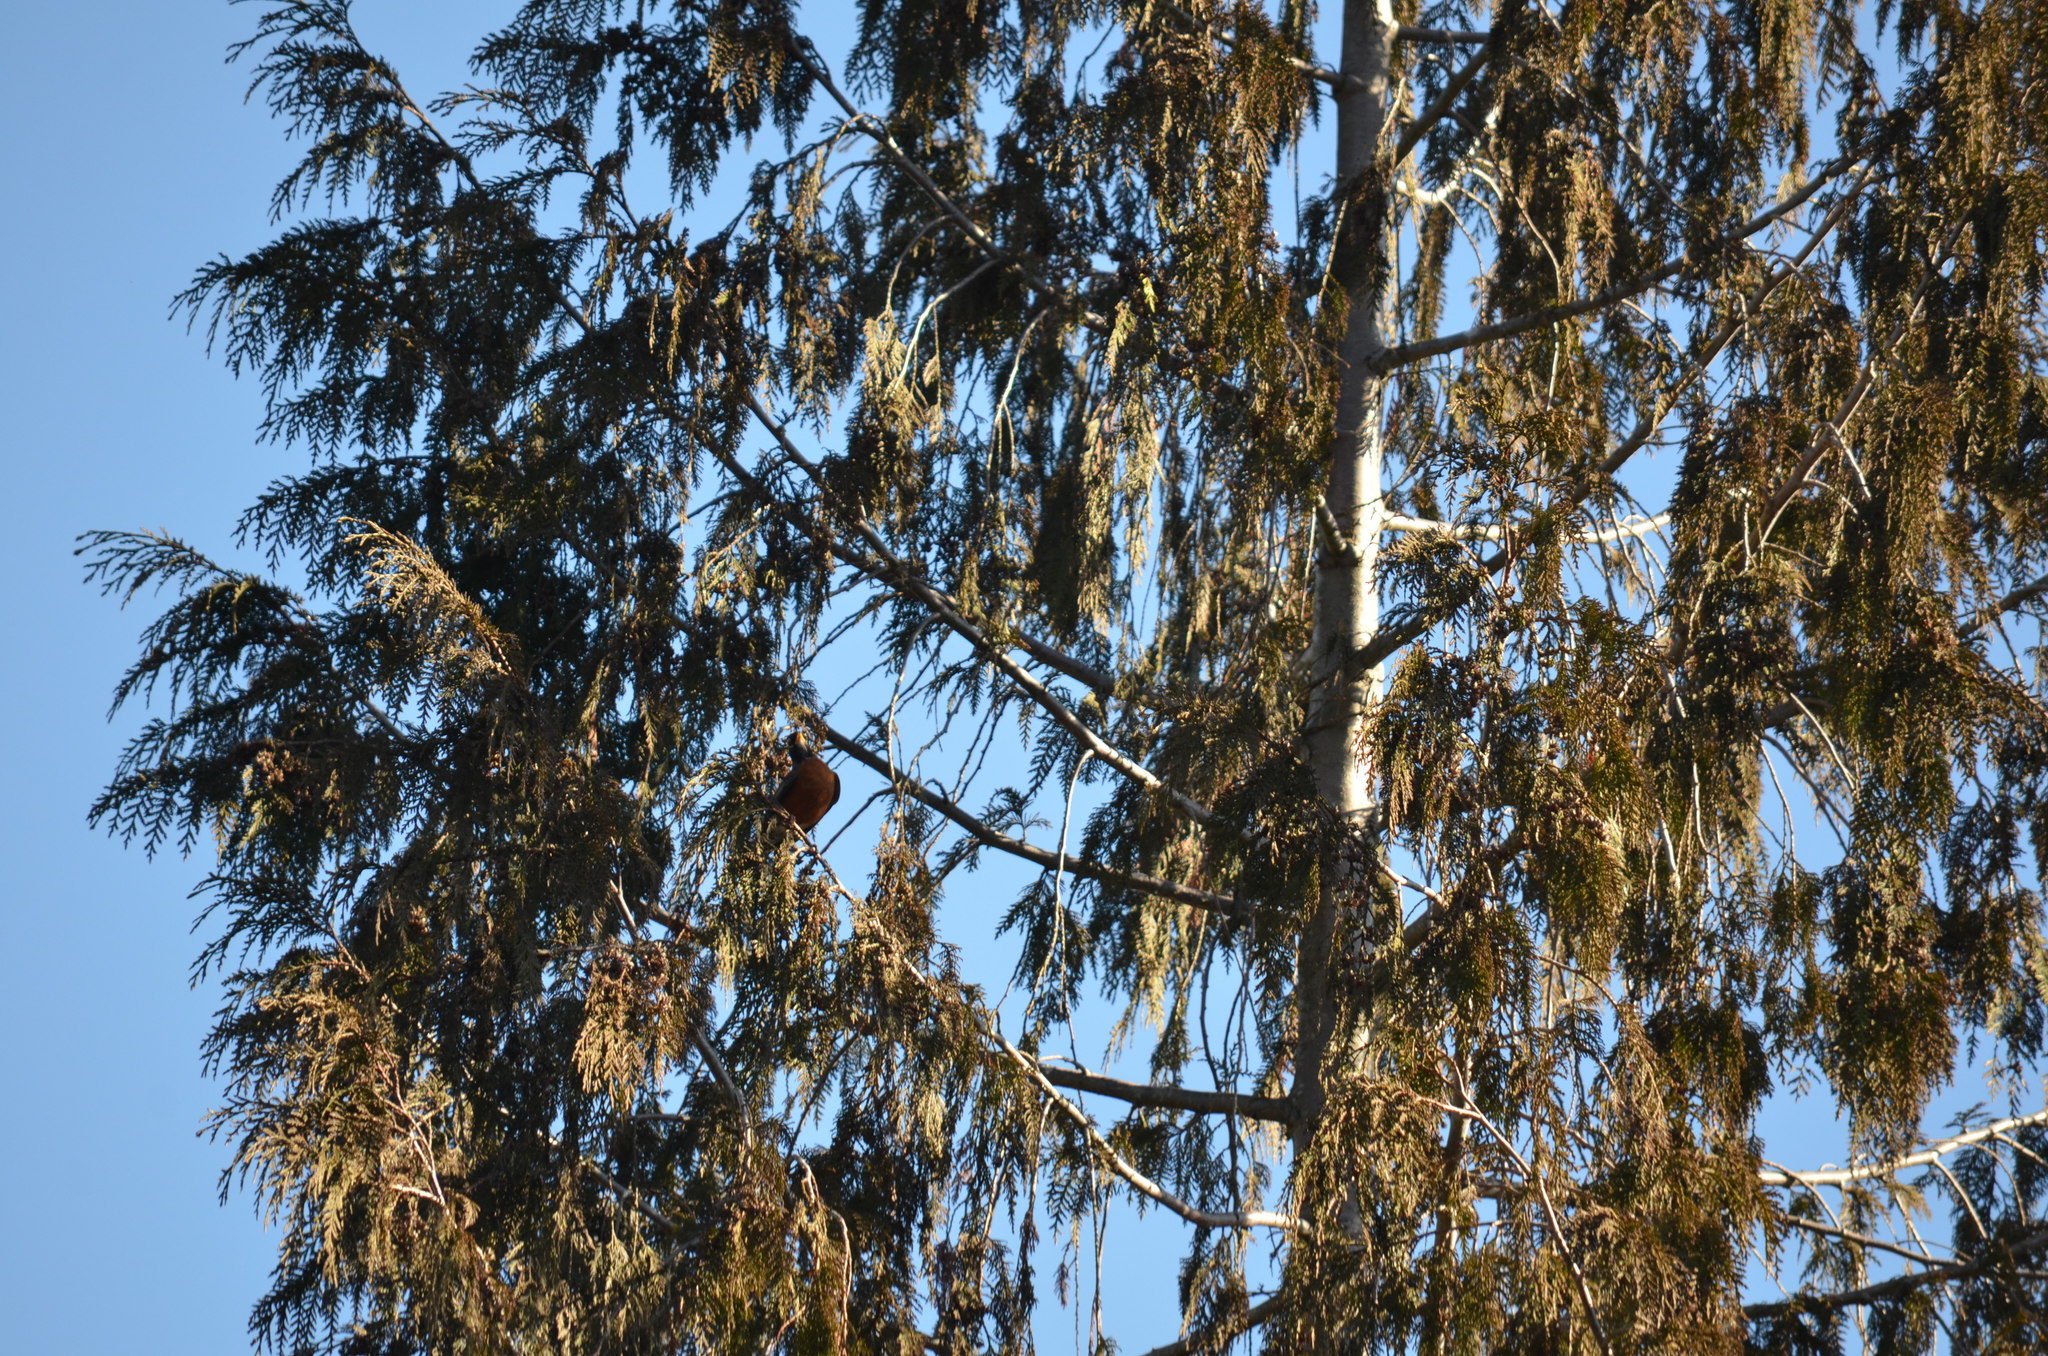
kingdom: Animalia
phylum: Chordata
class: Aves
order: Passeriformes
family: Turdidae
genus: Turdus
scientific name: Turdus migratorius
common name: American robin
